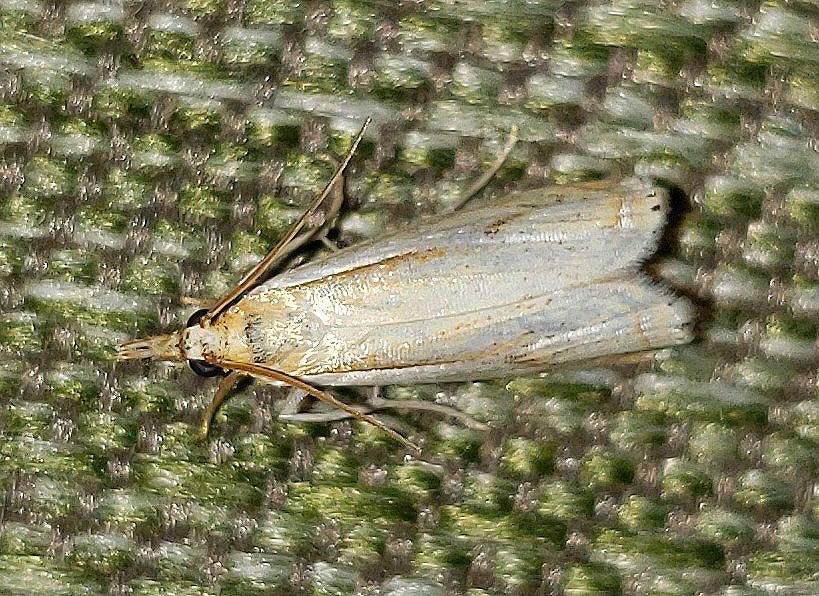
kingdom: Animalia
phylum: Arthropoda
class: Insecta
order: Lepidoptera
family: Crambidae
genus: Crambus
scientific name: Crambus saltuellus
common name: Pasture grass-veneer
